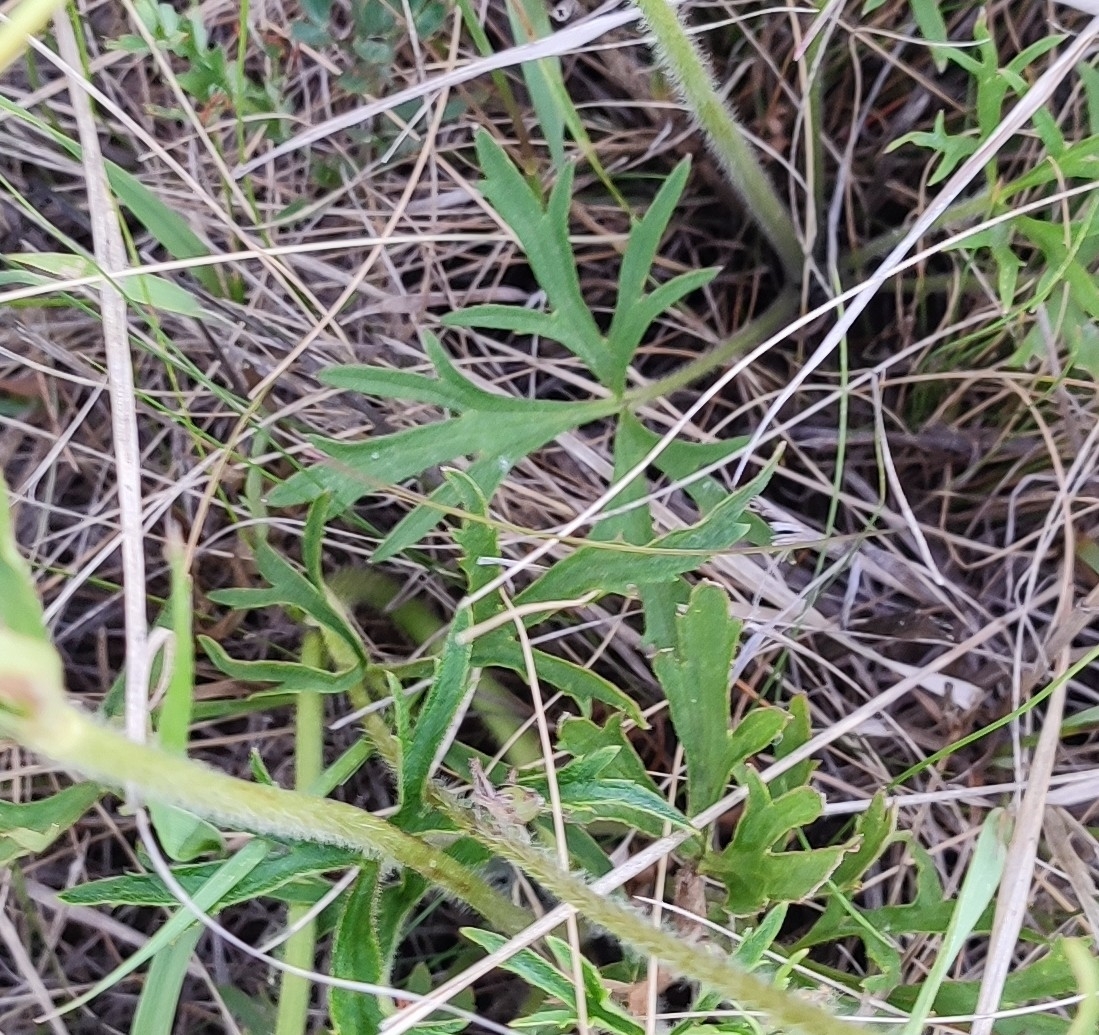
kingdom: Plantae
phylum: Tracheophyta
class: Magnoliopsida
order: Ranunculales
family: Ranunculaceae
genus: Ranunculus
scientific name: Ranunculus polyanthemos
